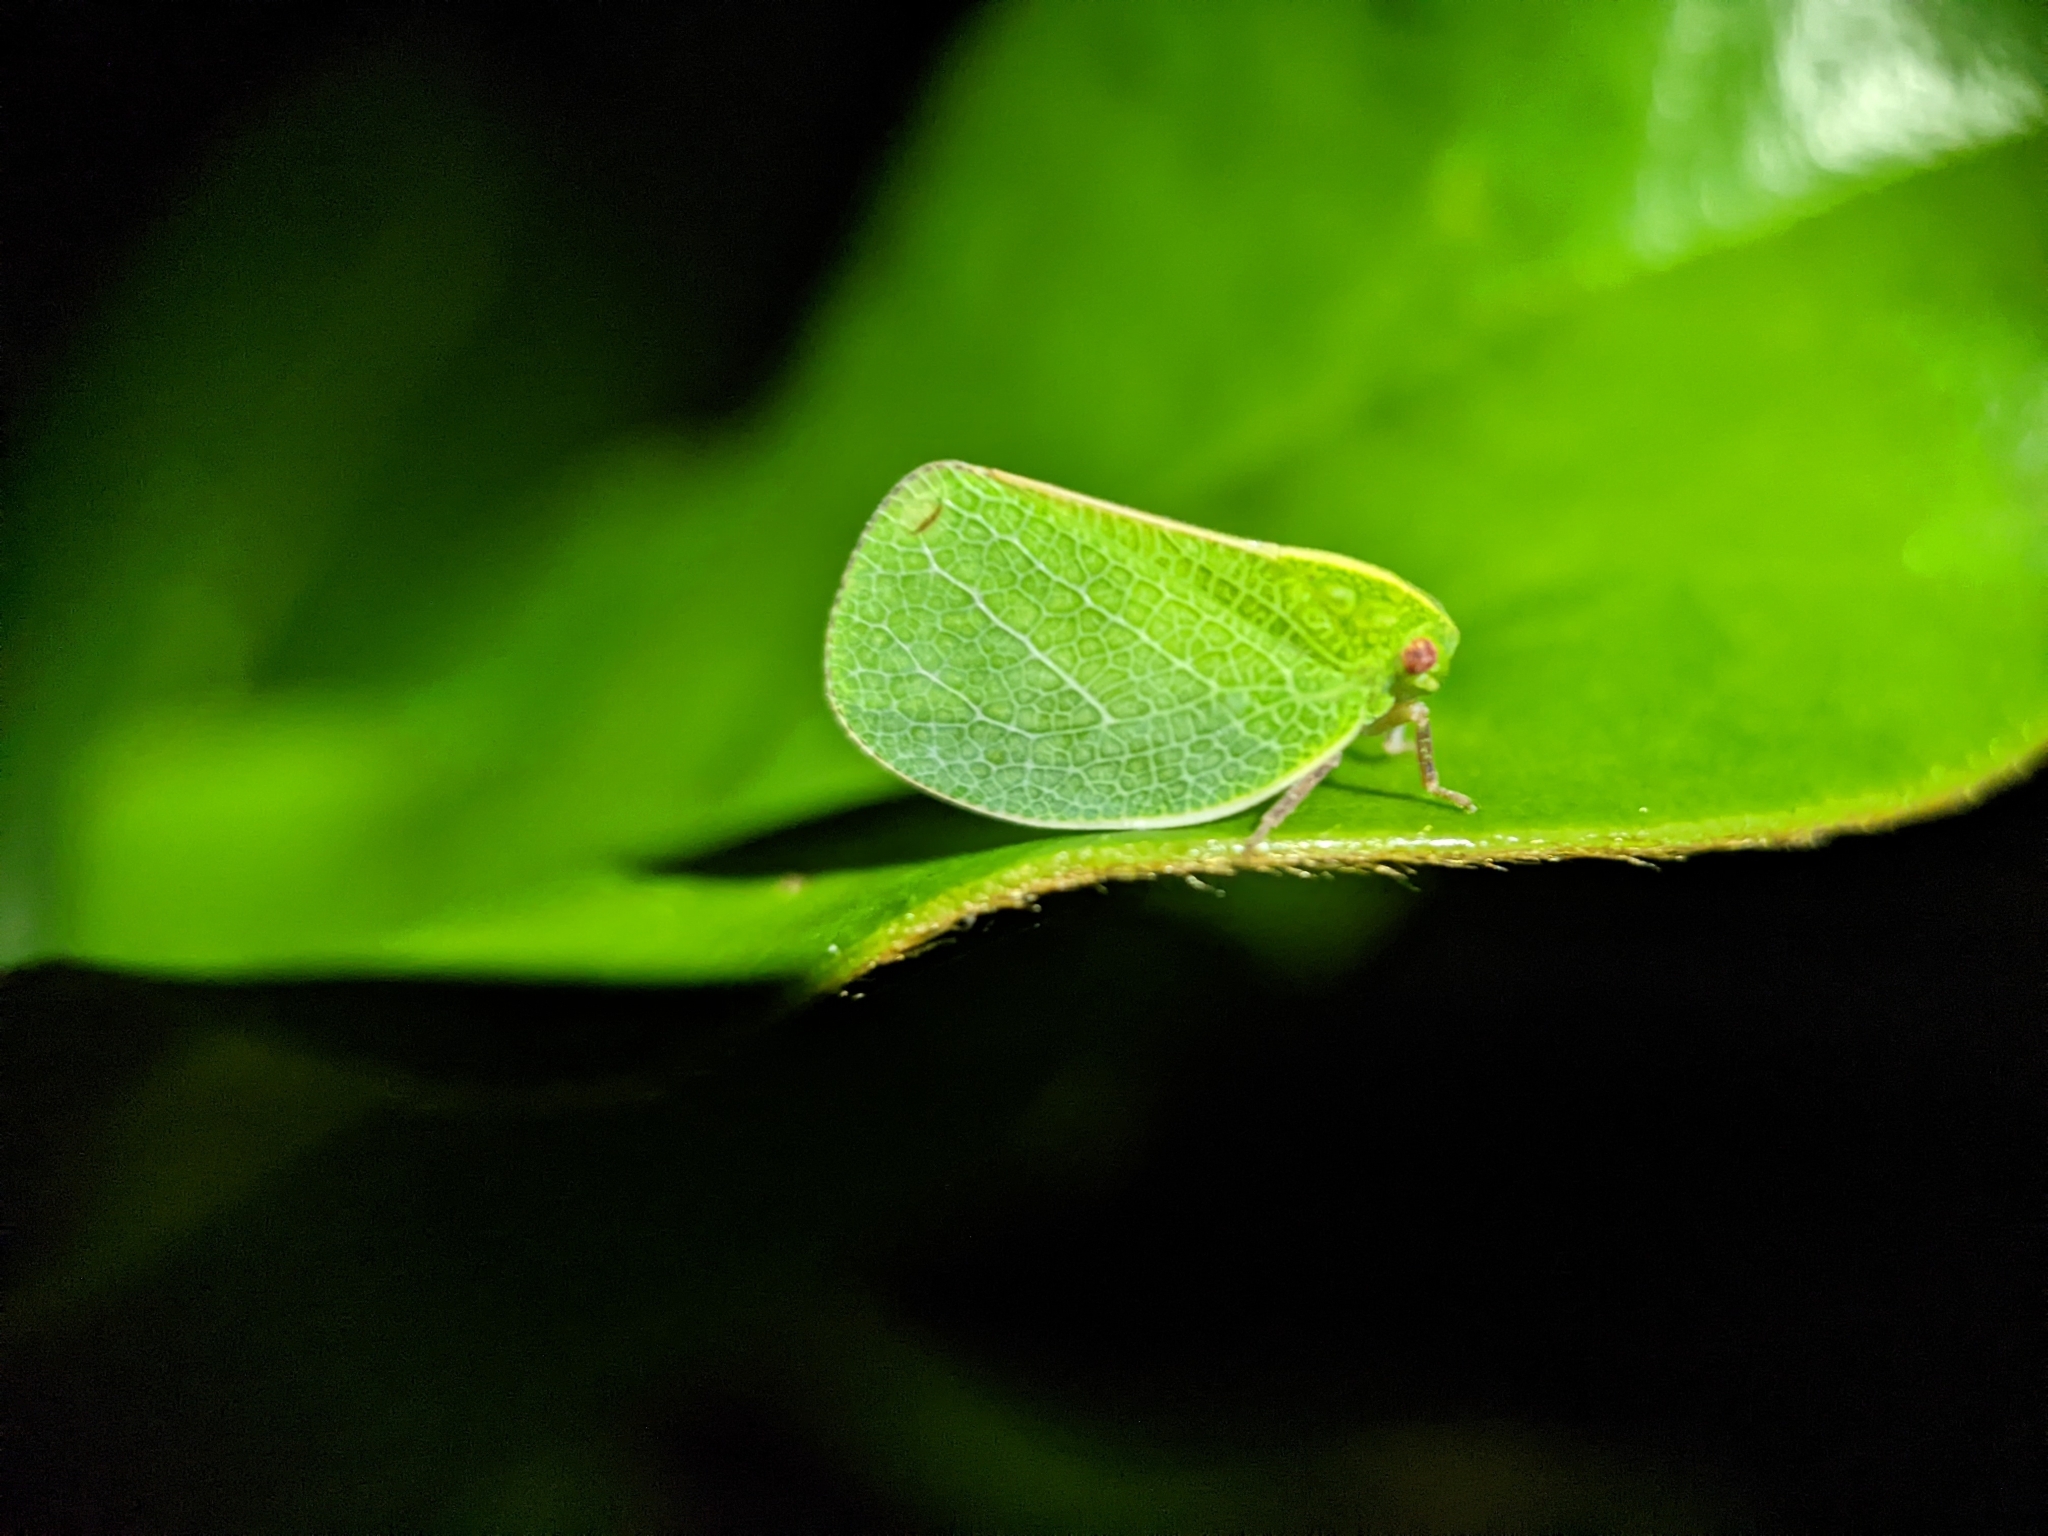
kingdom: Animalia
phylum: Arthropoda
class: Insecta
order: Hemiptera
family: Acanaloniidae
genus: Acanalonia
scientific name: Acanalonia servillei
